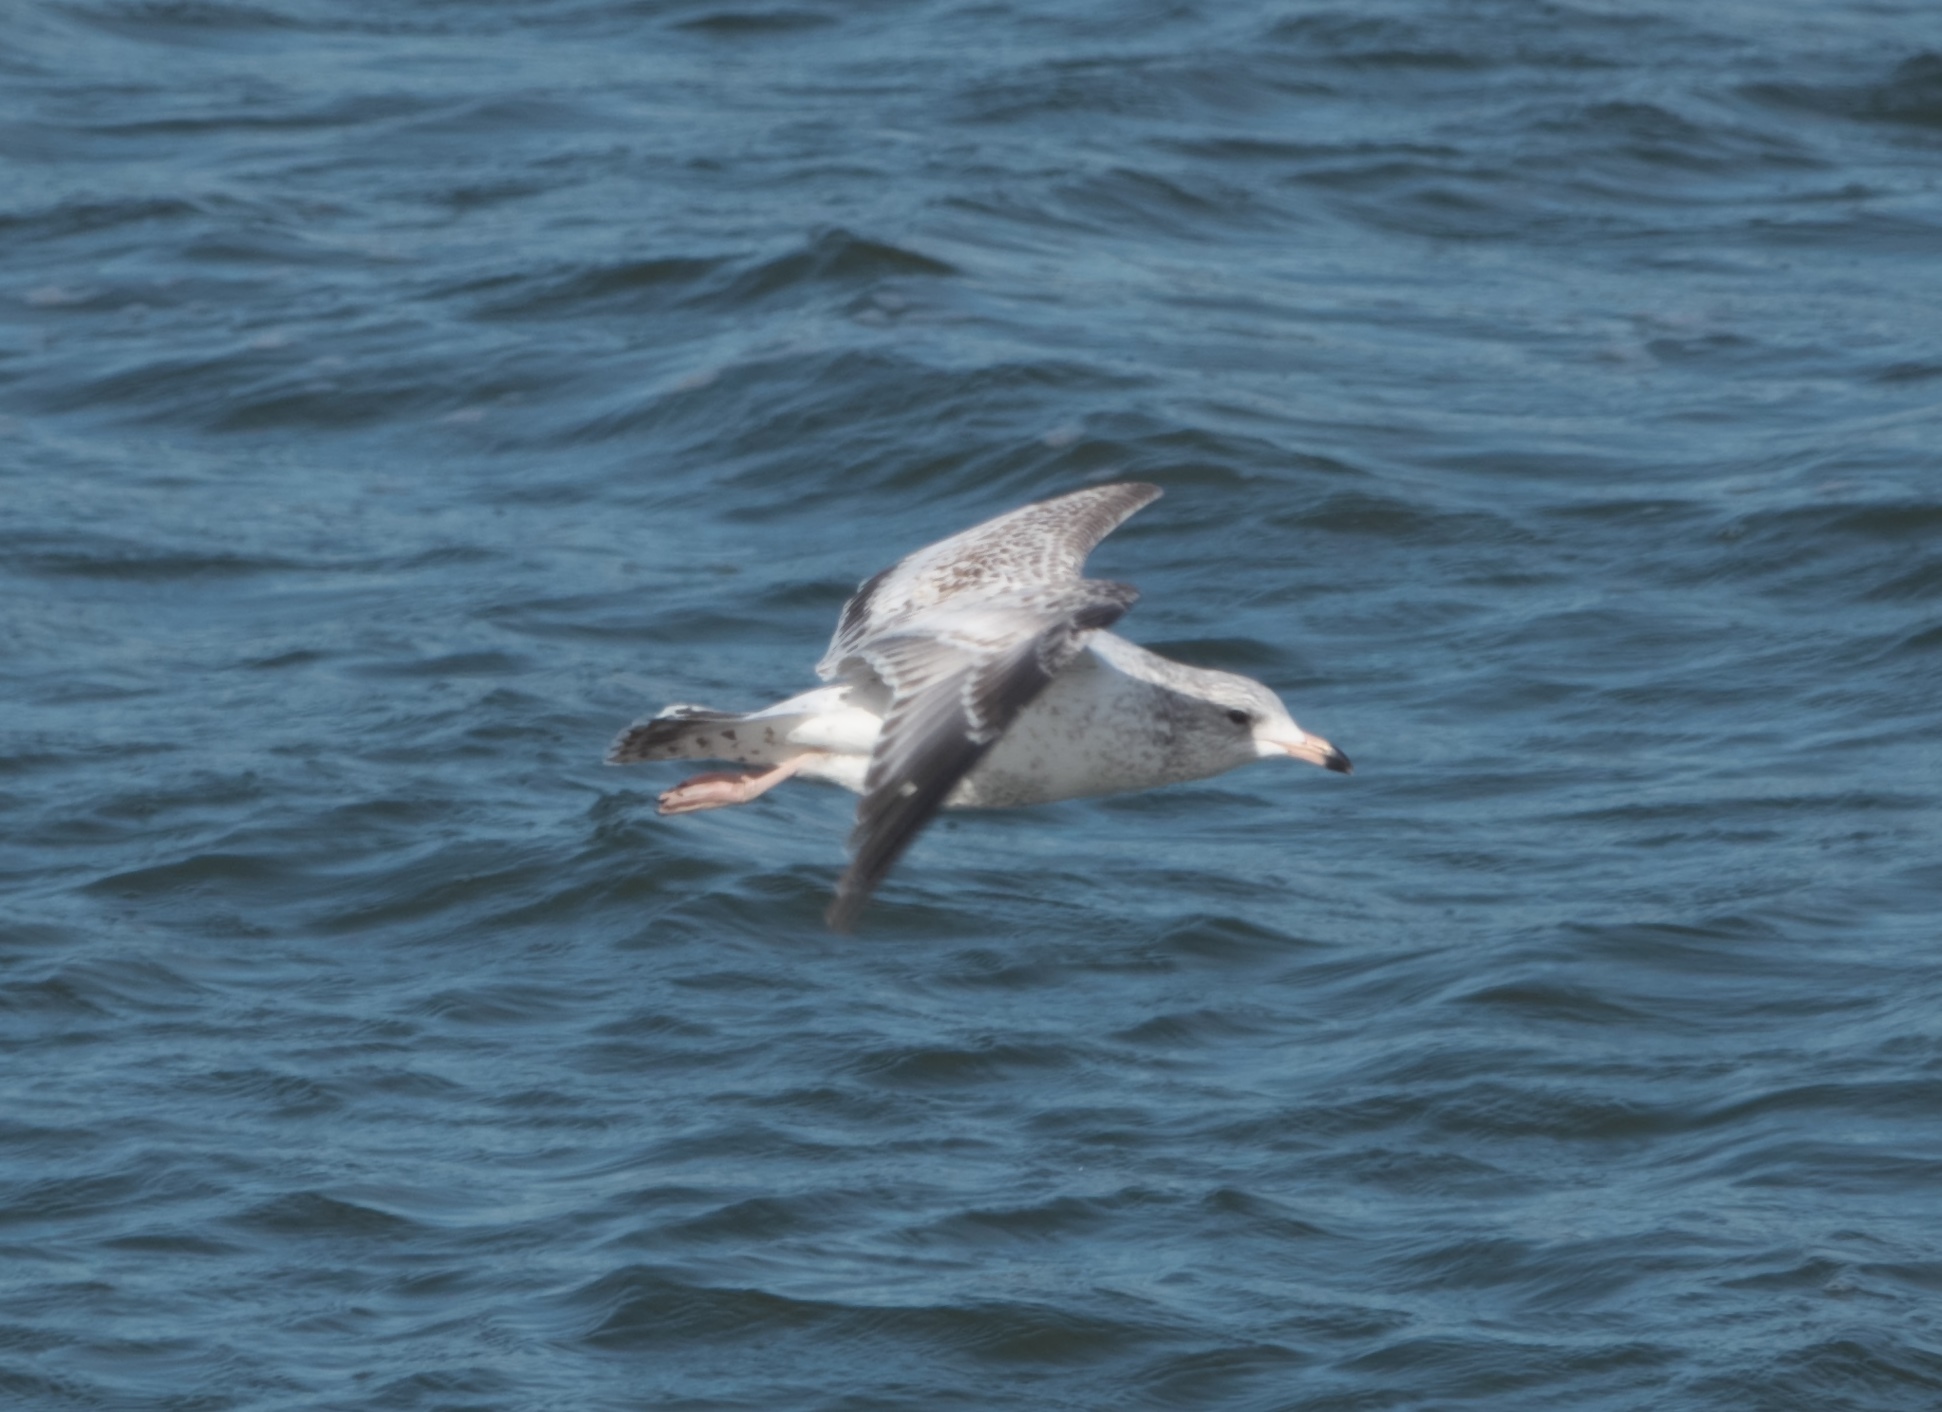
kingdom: Animalia
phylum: Chordata
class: Aves
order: Charadriiformes
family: Laridae
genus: Larus
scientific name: Larus delawarensis
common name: Ring-billed gull
